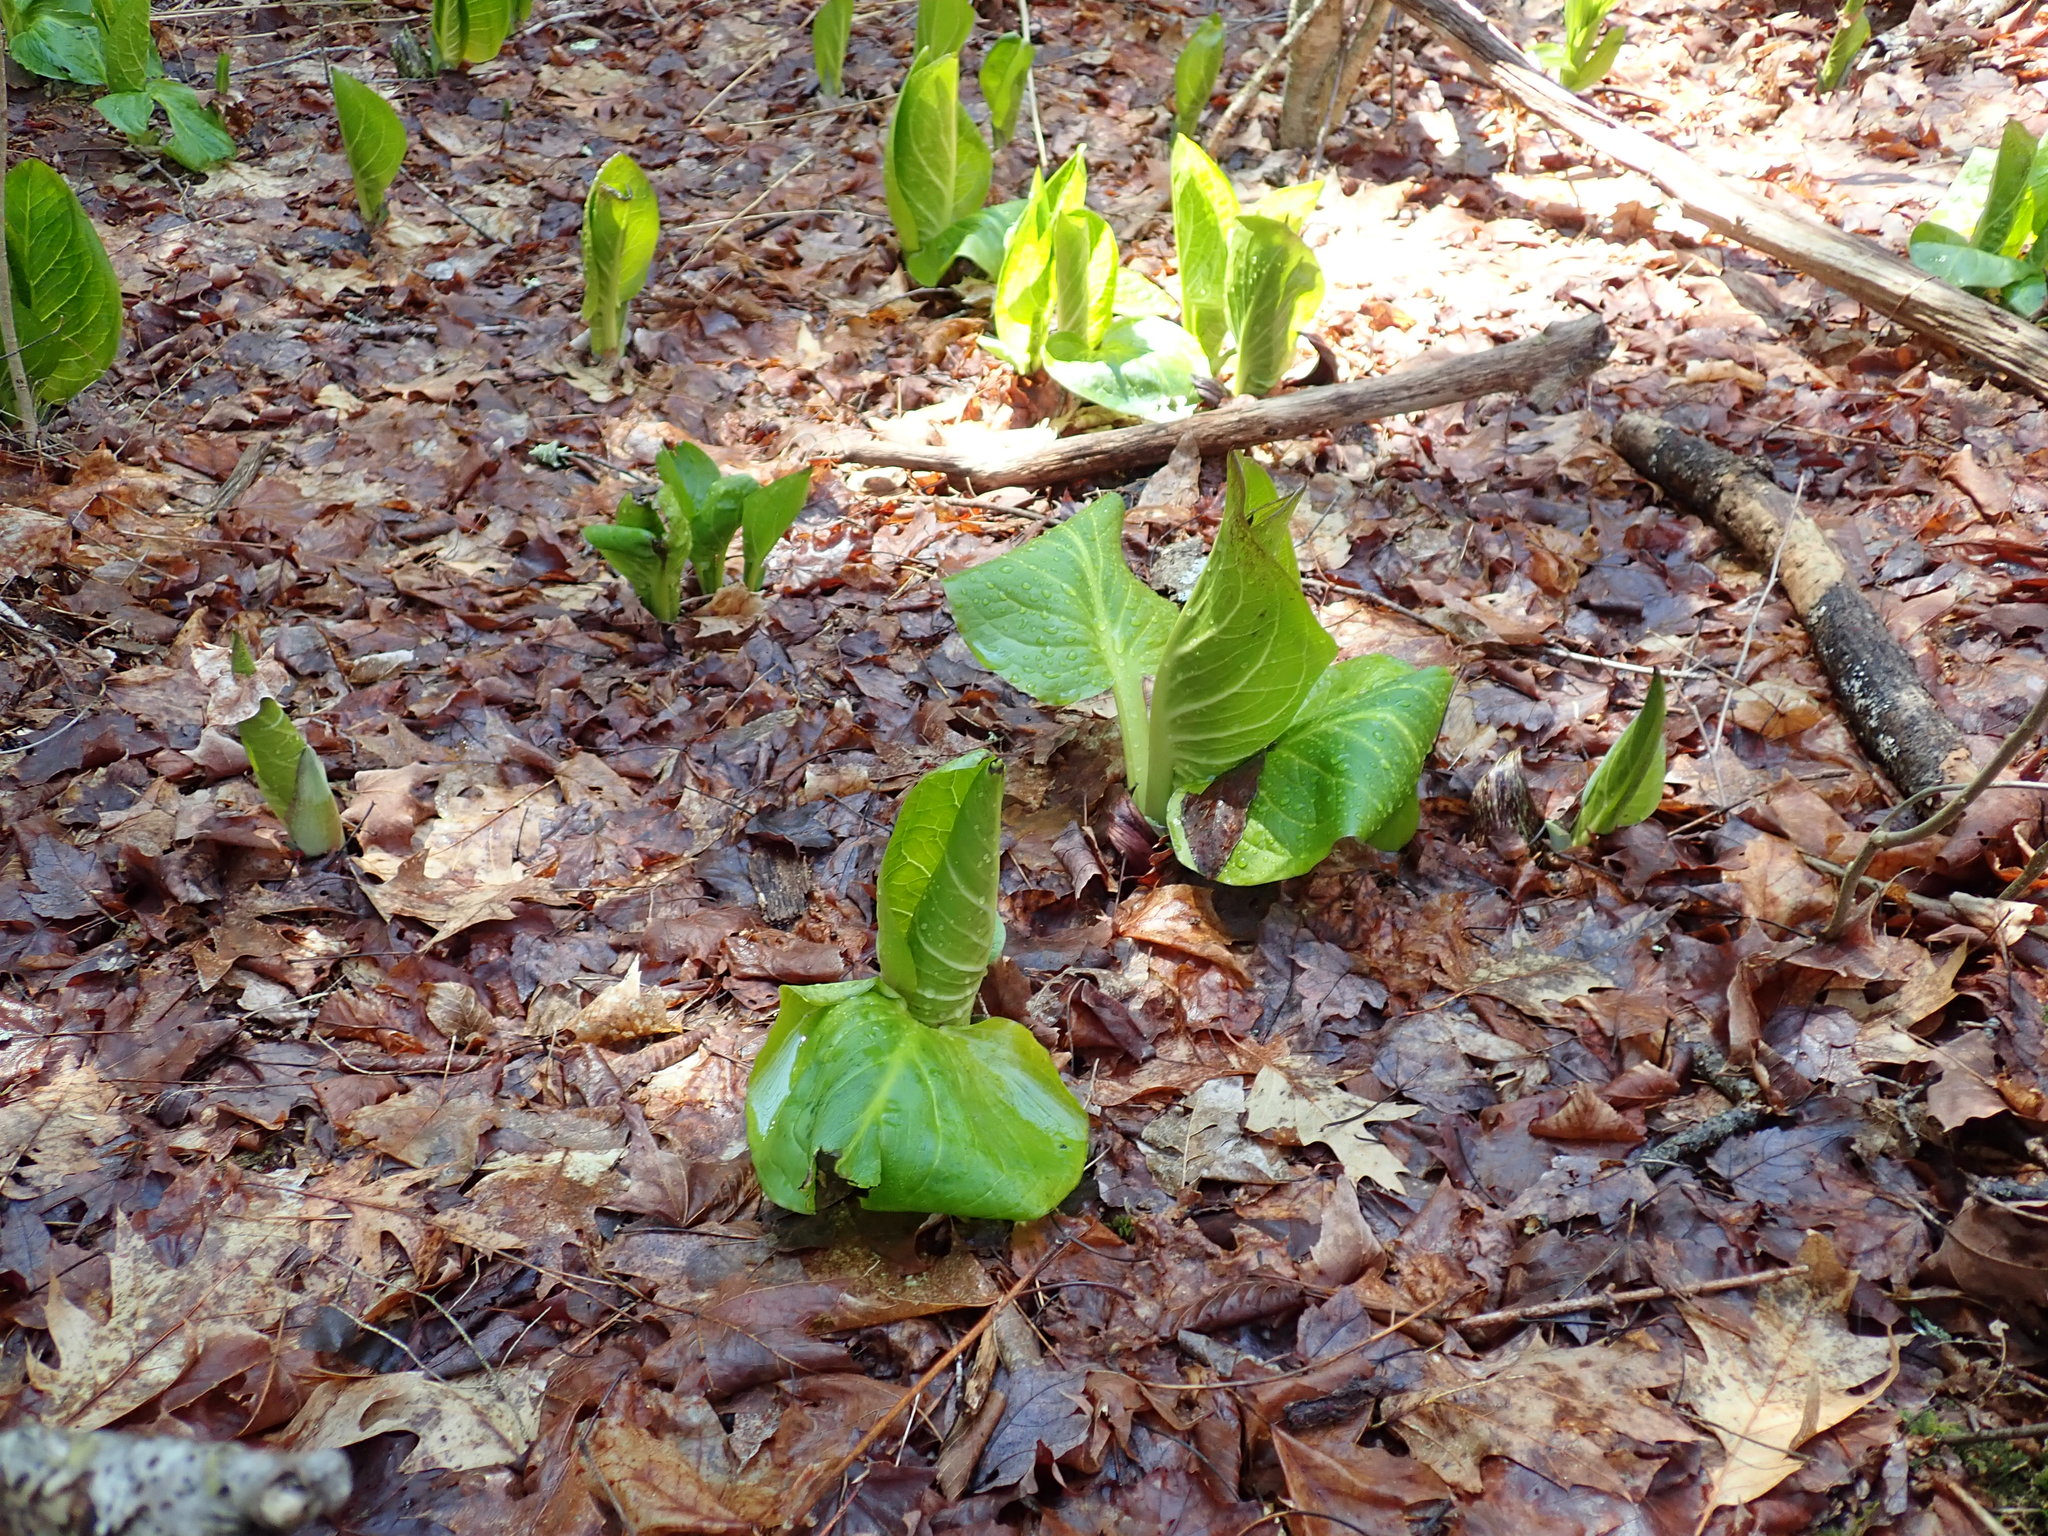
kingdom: Plantae
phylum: Tracheophyta
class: Liliopsida
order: Alismatales
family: Araceae
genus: Symplocarpus
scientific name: Symplocarpus foetidus
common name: Eastern skunk cabbage
